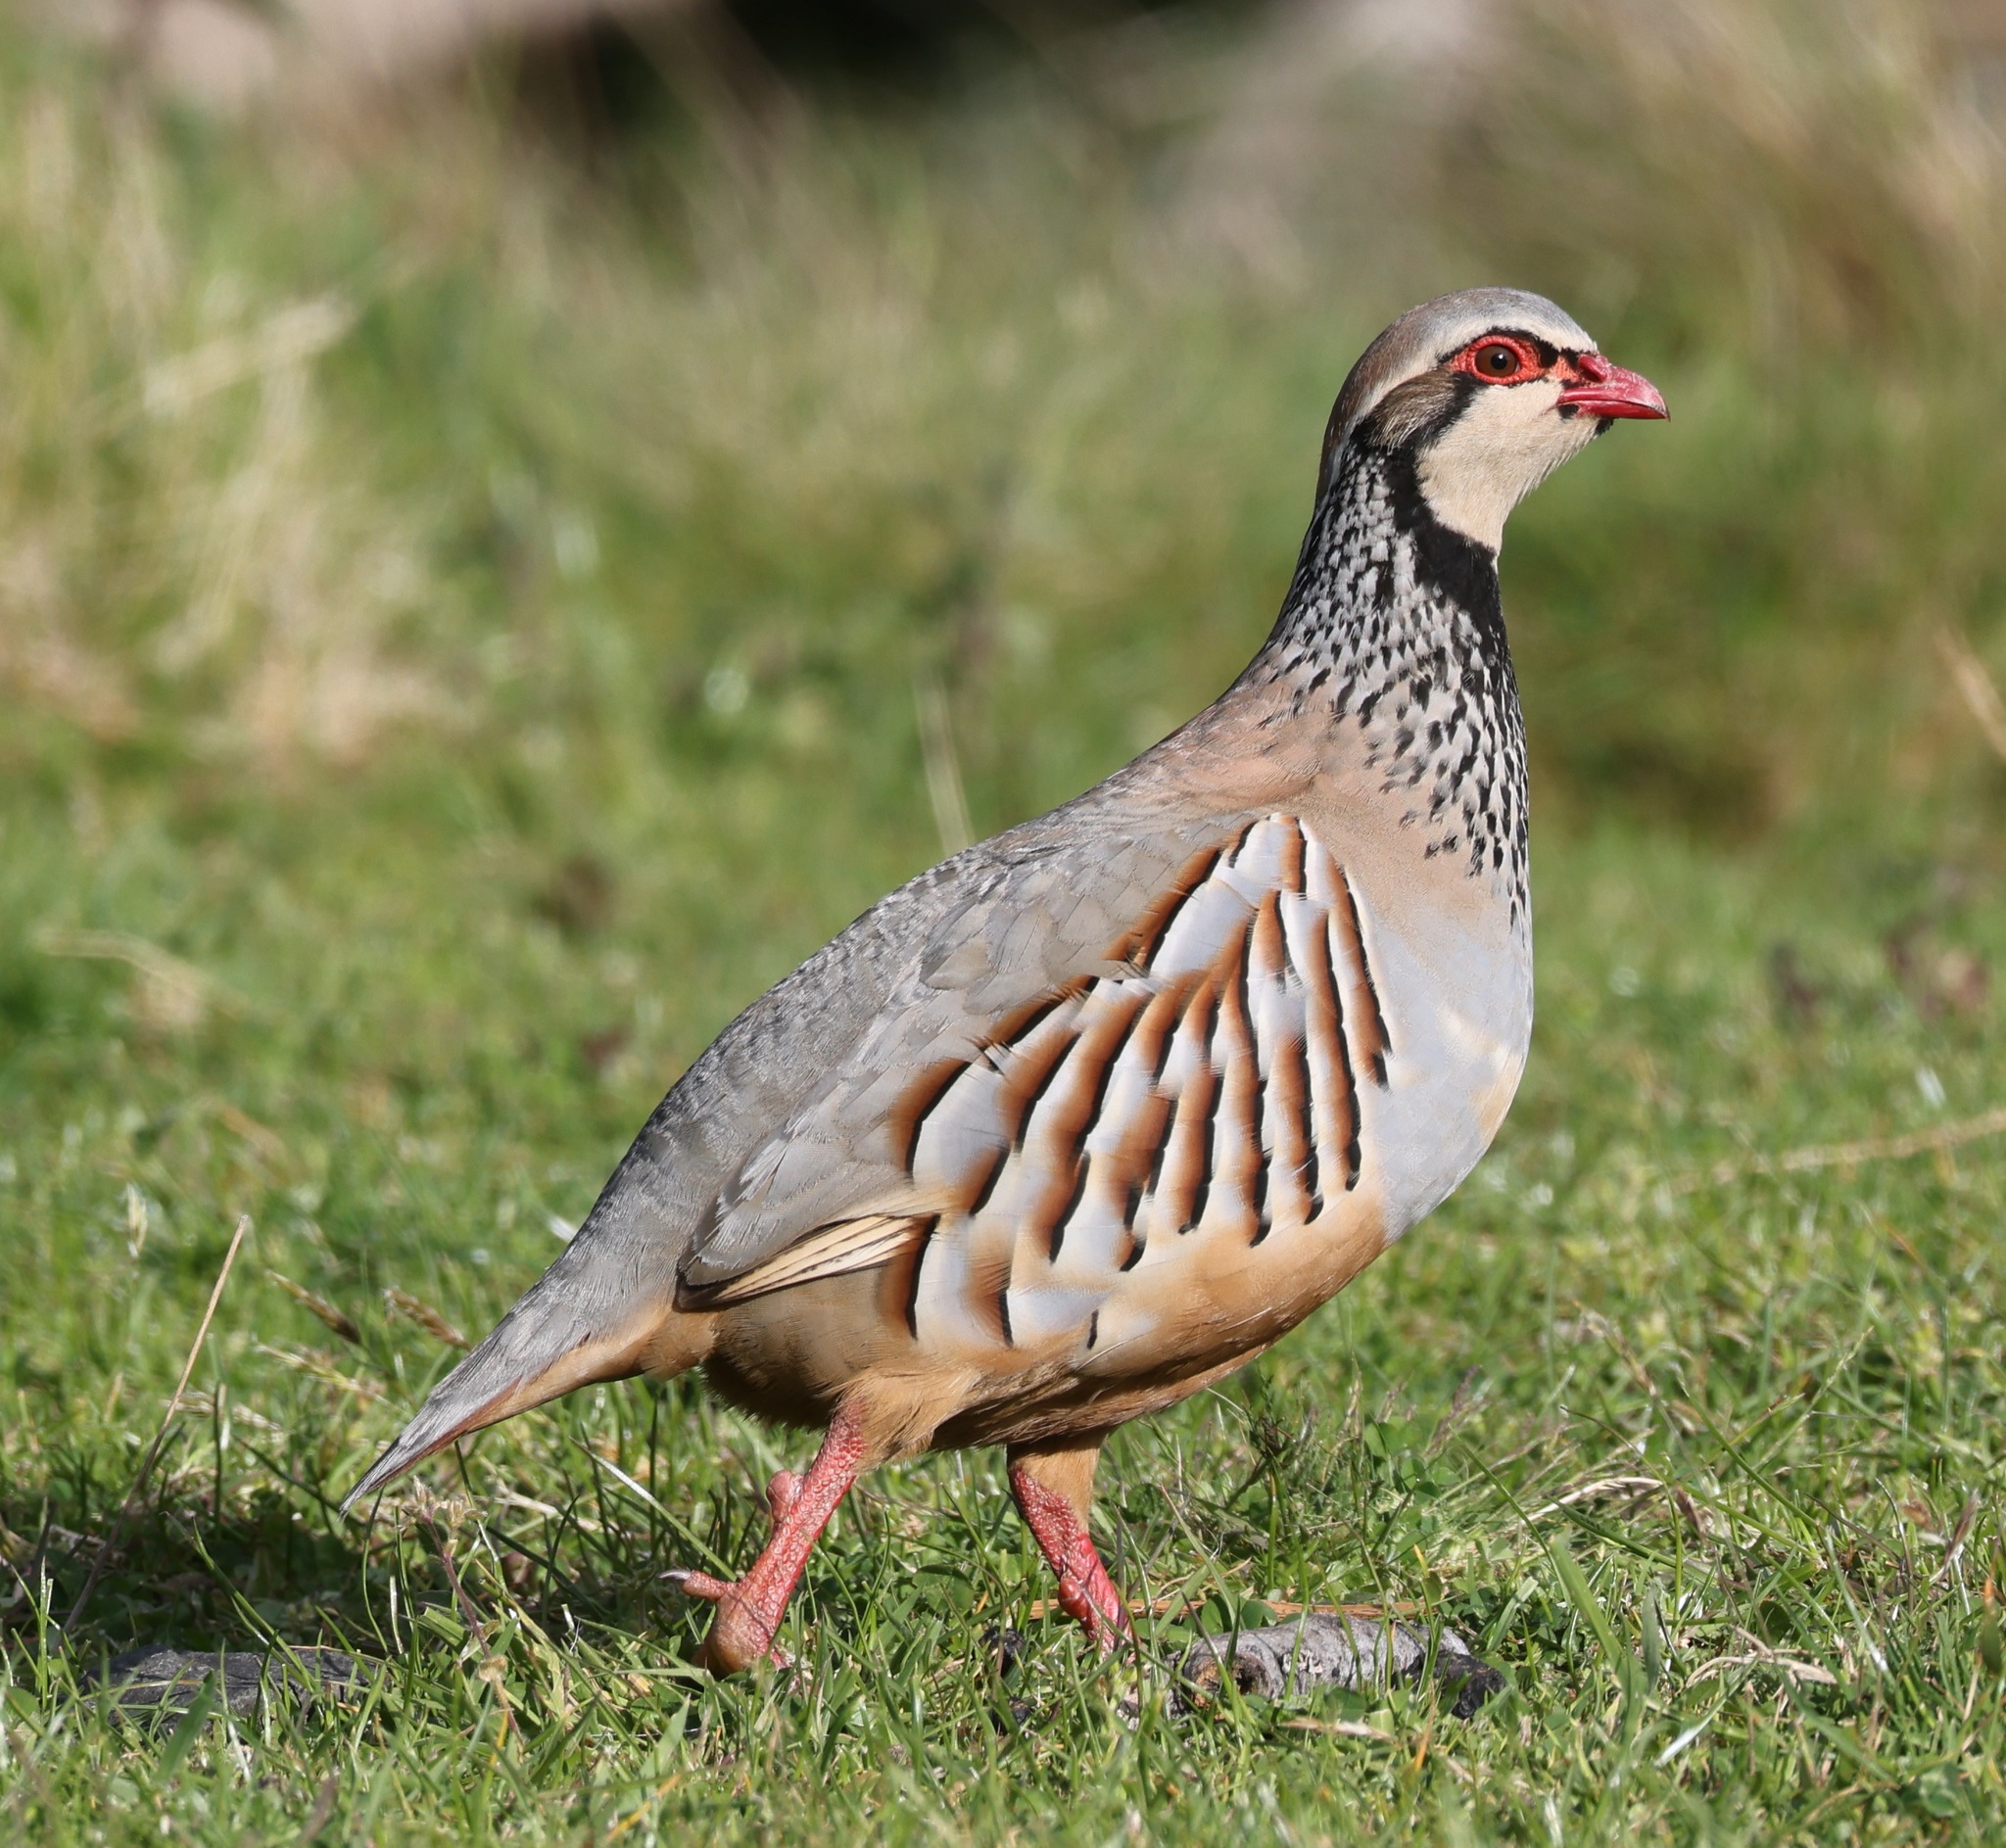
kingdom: Animalia
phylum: Chordata
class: Aves
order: Galliformes
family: Phasianidae
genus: Alectoris
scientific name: Alectoris rufa
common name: Red-legged partridge
